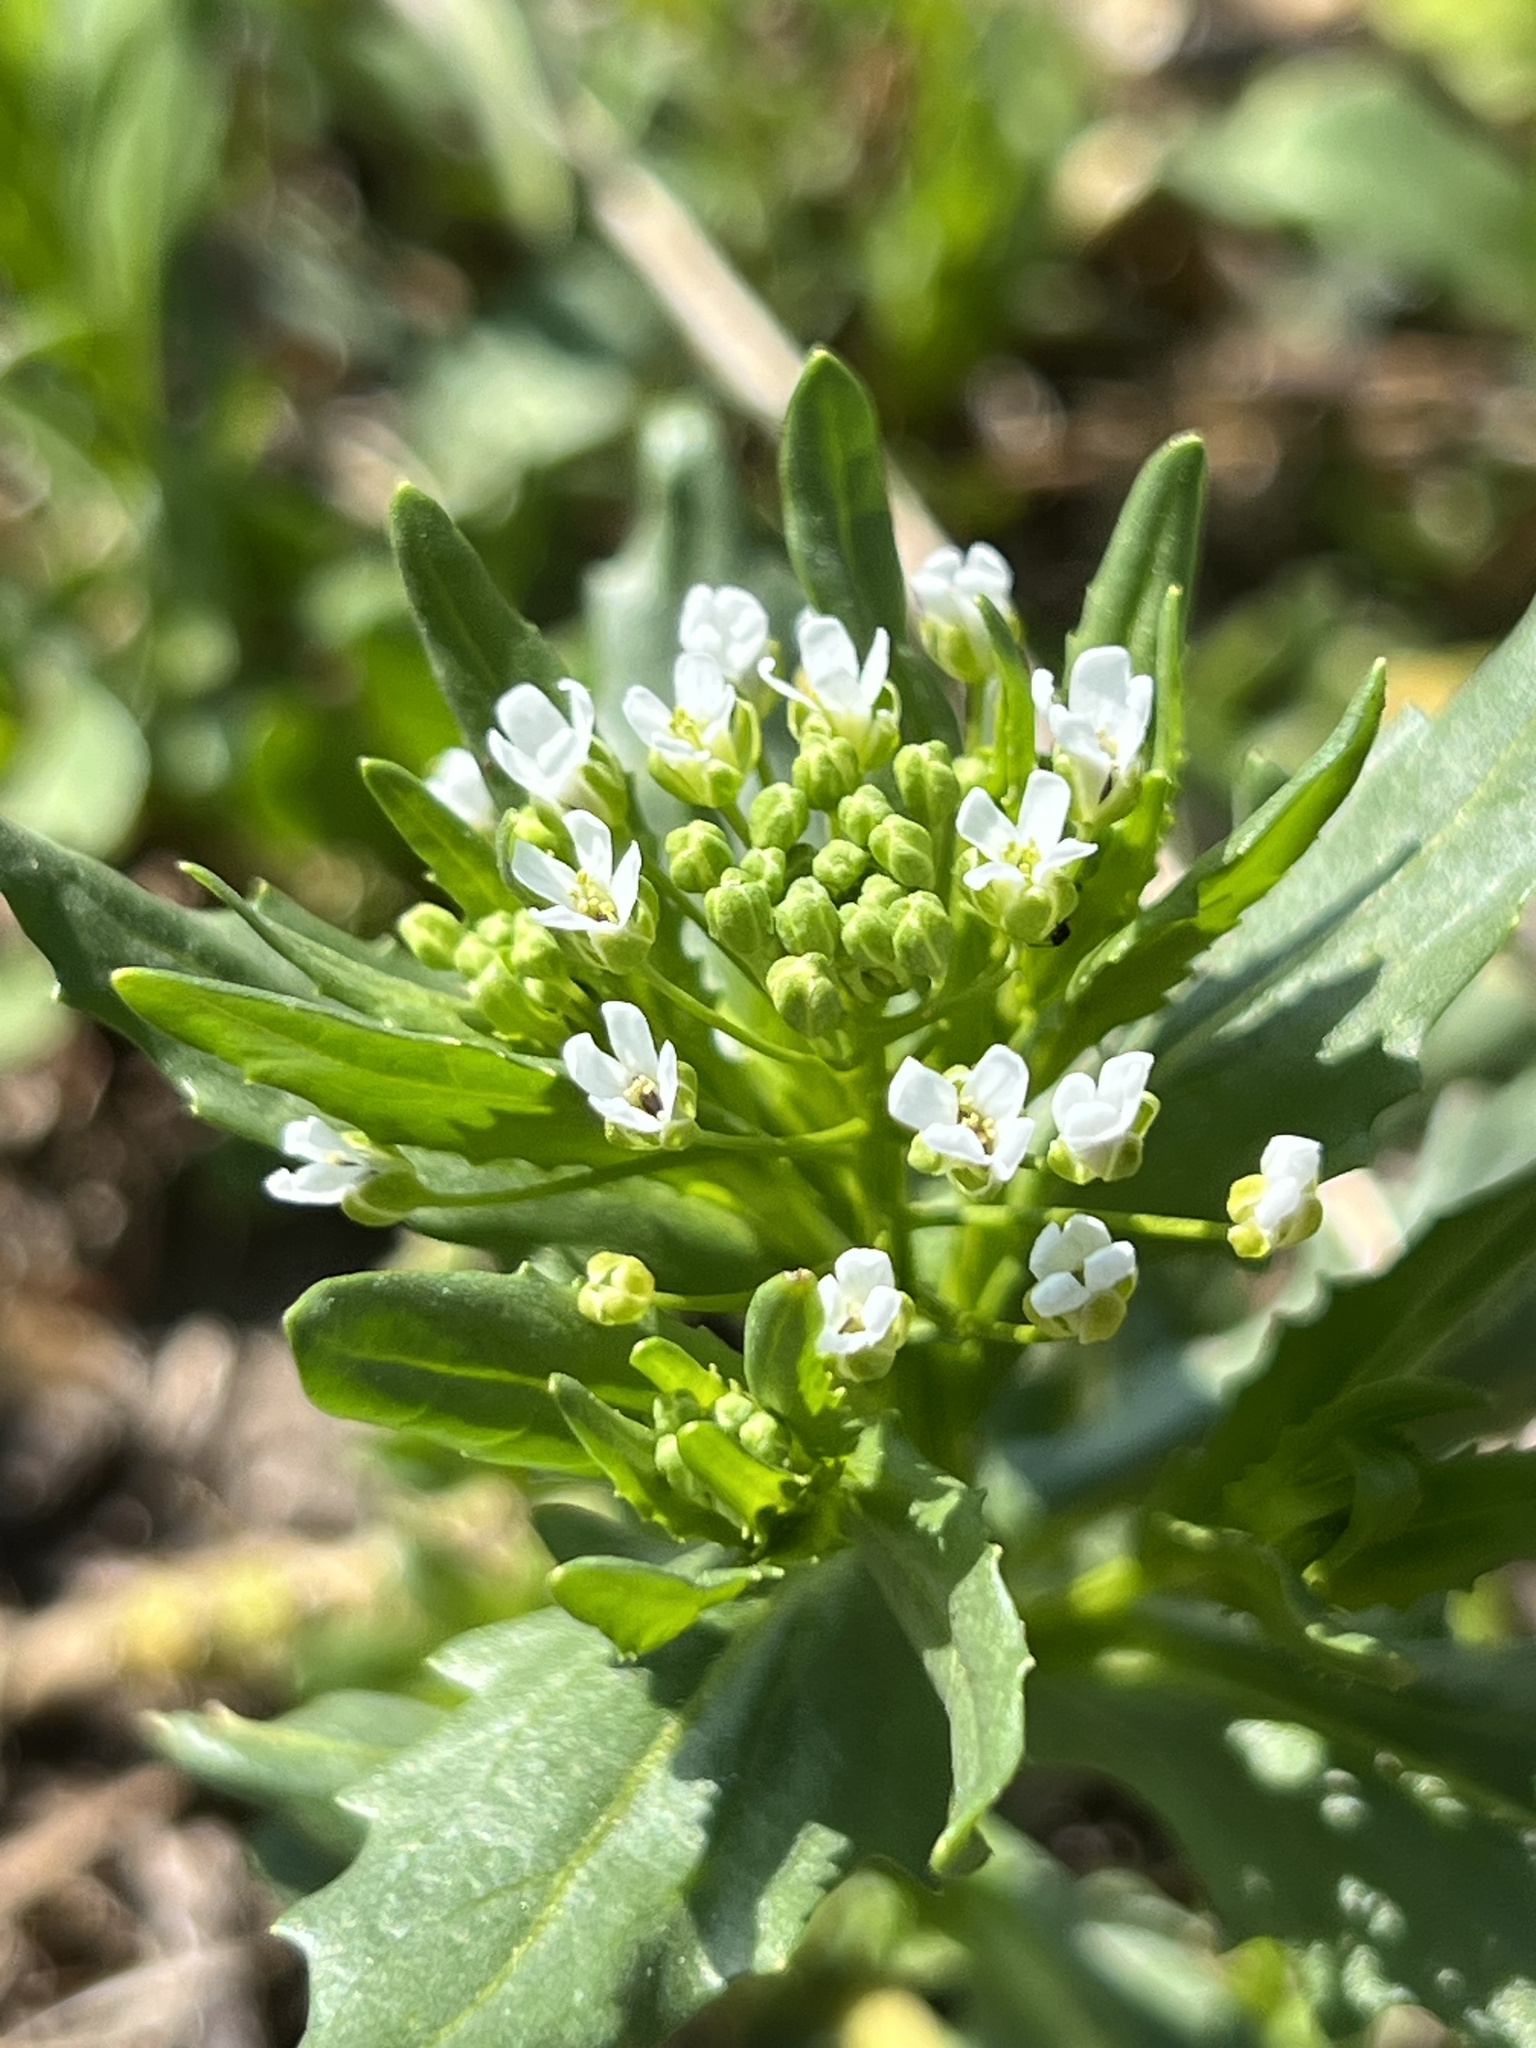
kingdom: Plantae
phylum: Tracheophyta
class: Magnoliopsida
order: Brassicales
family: Brassicaceae
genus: Thlaspi
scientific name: Thlaspi arvense
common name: Field pennycress
